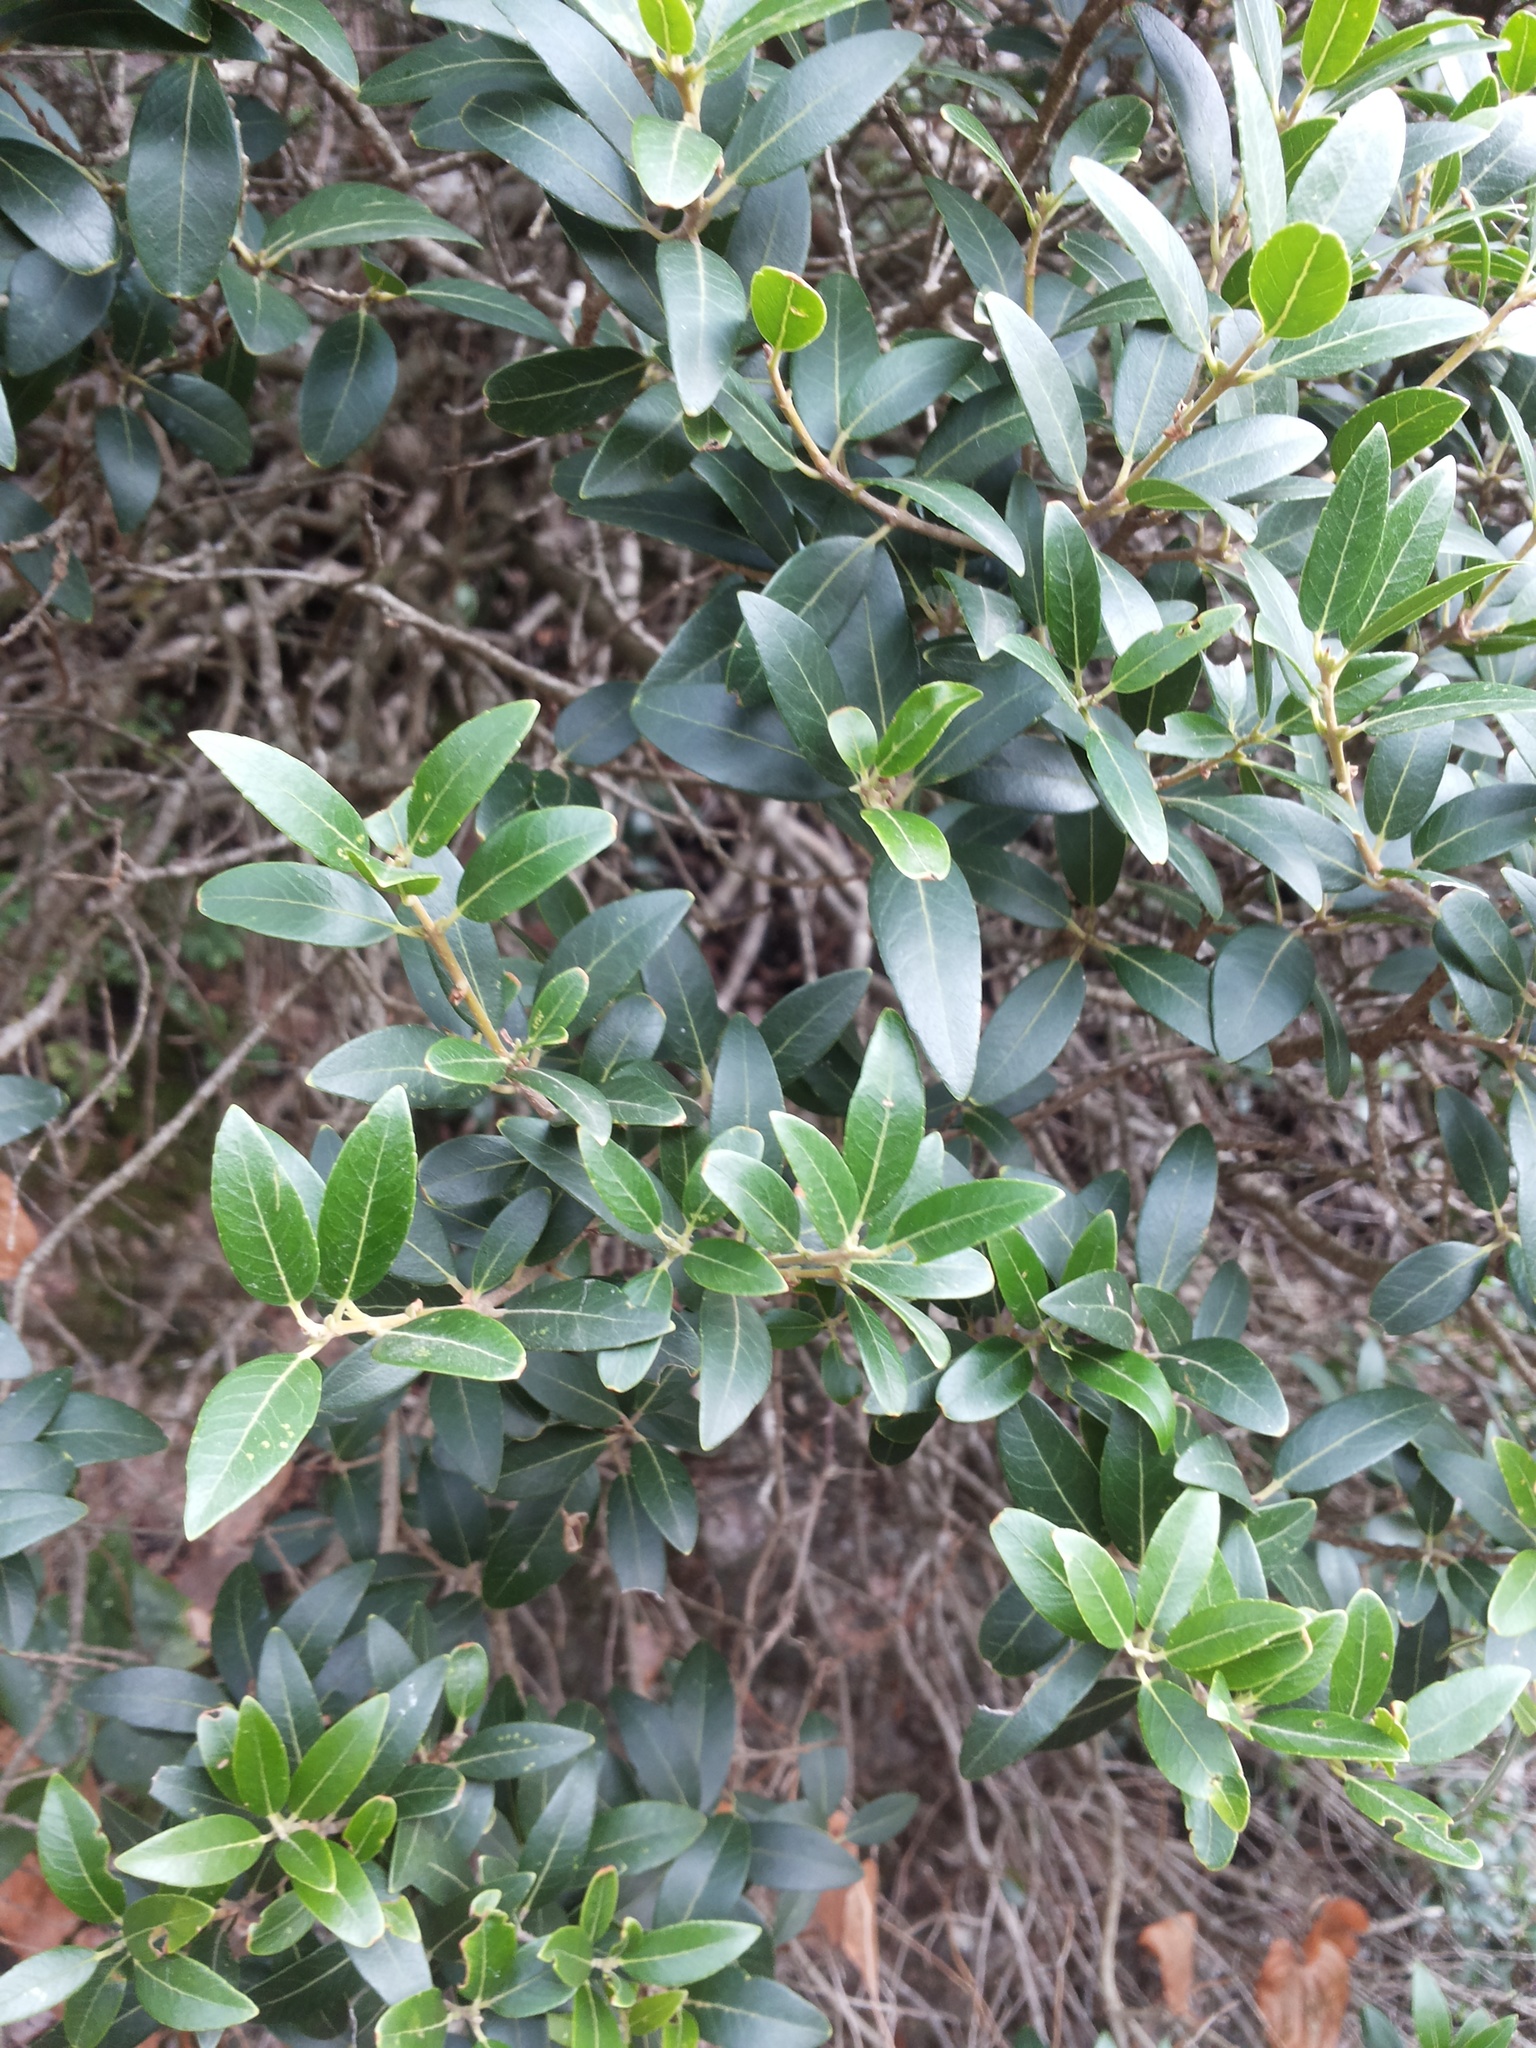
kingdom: Plantae
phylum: Tracheophyta
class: Magnoliopsida
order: Lamiales
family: Oleaceae
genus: Phillyrea
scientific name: Phillyrea latifolia
